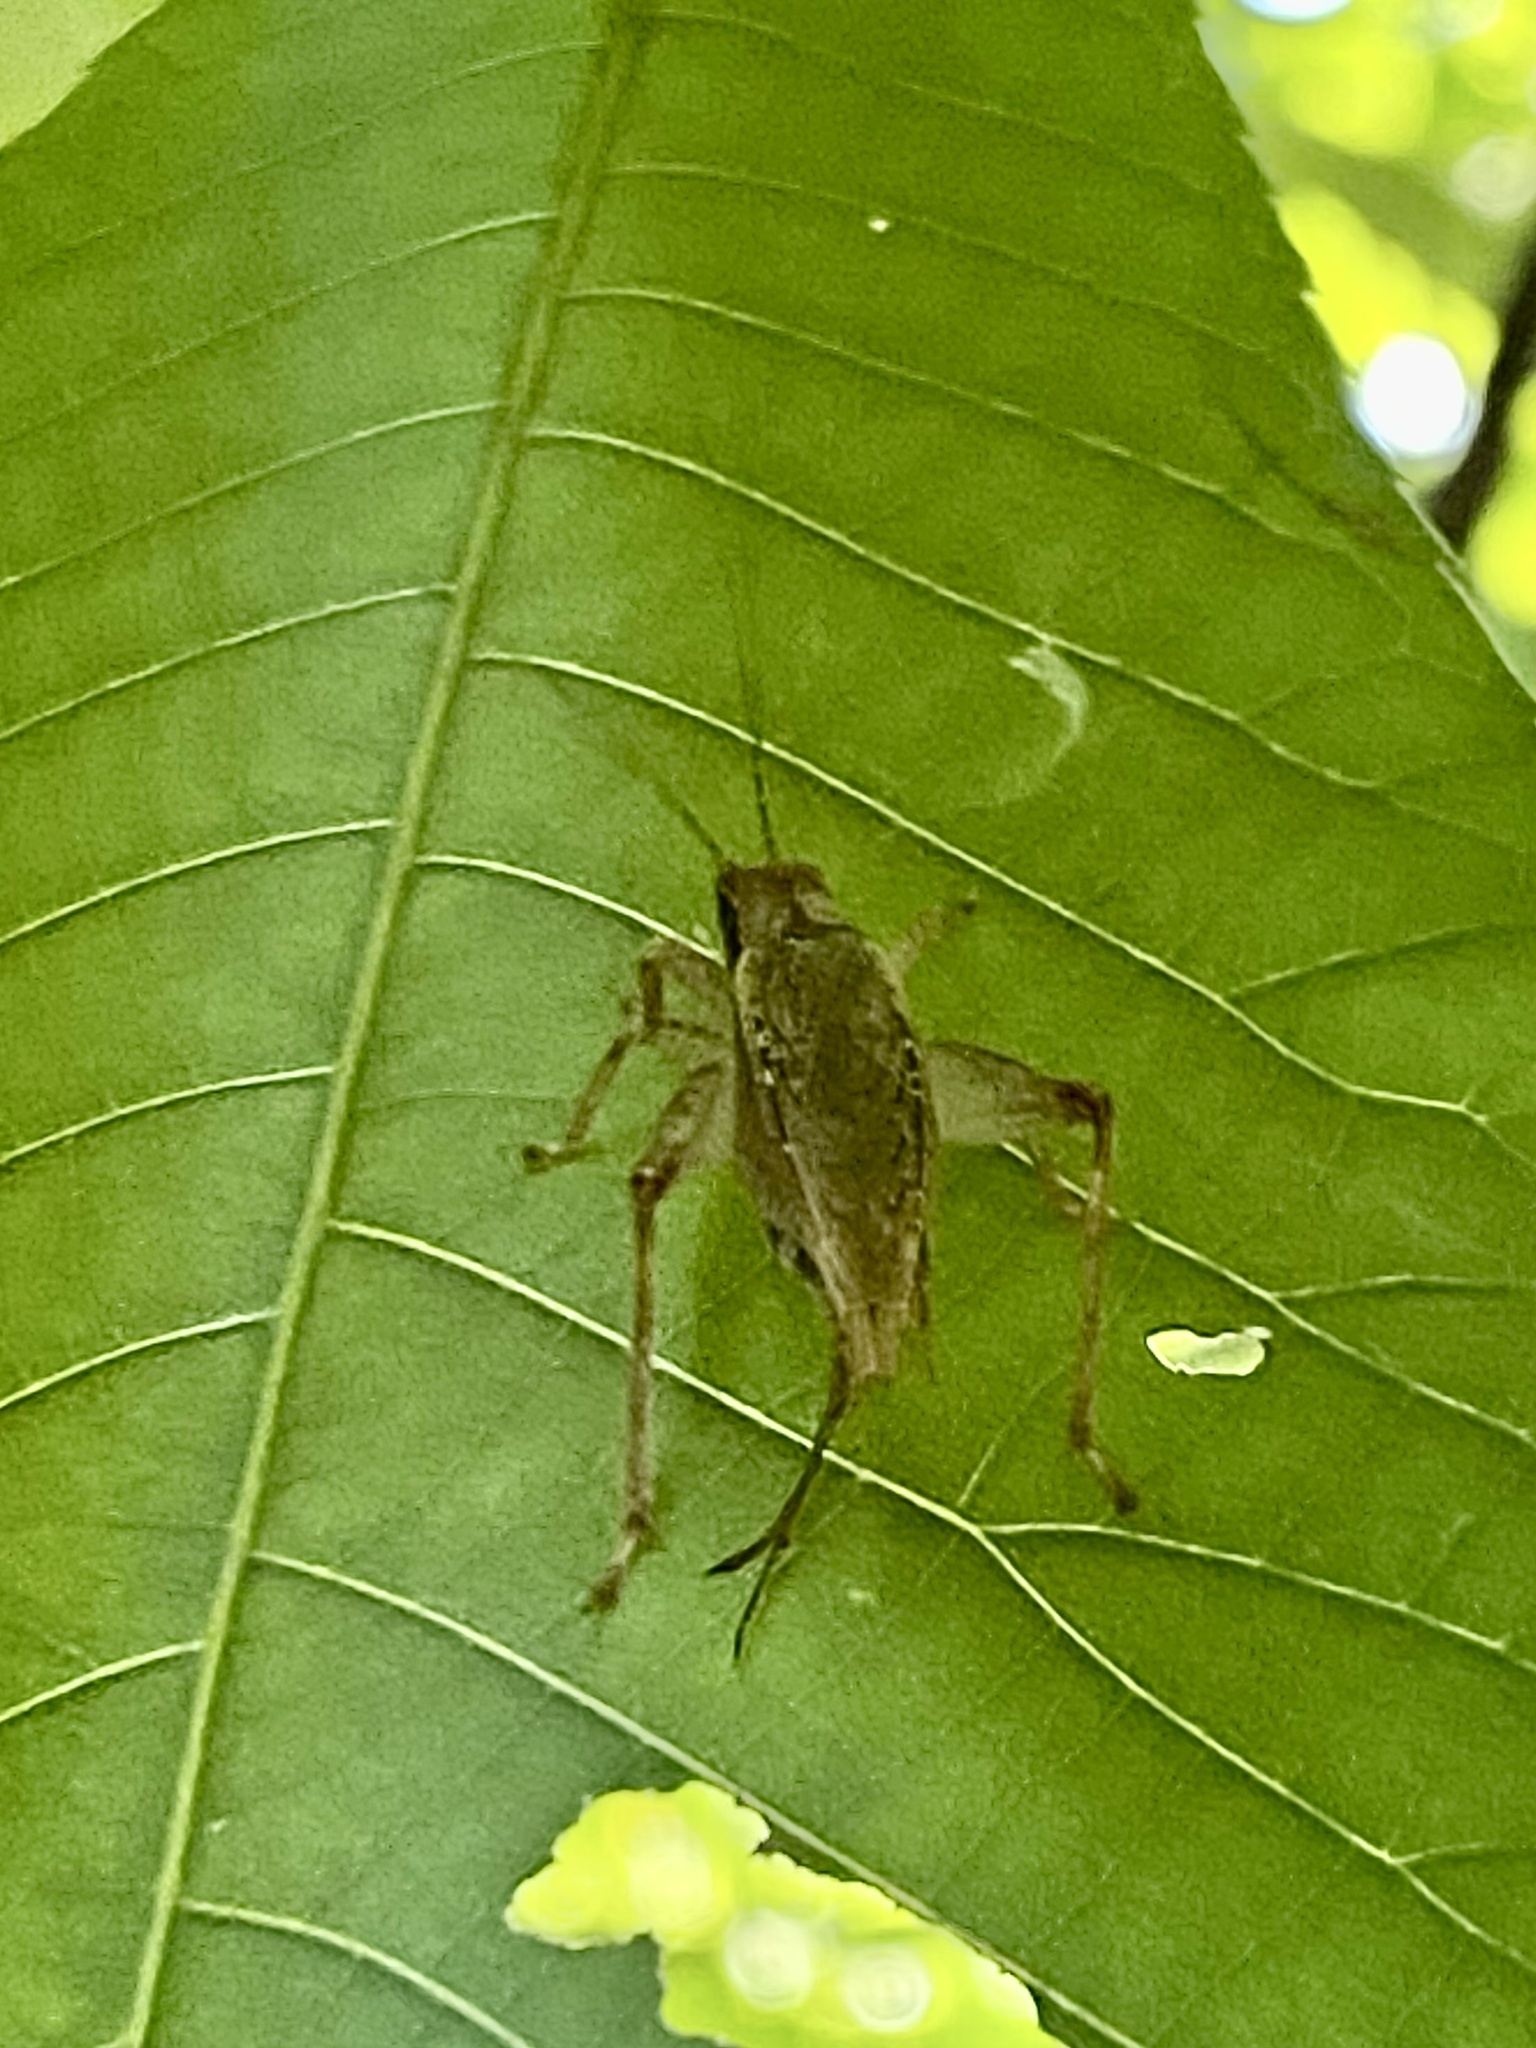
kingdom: Animalia
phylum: Arthropoda
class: Insecta
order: Orthoptera
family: Gryllidae
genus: Hapithus
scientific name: Hapithus saltator
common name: Jumping bush cricket
